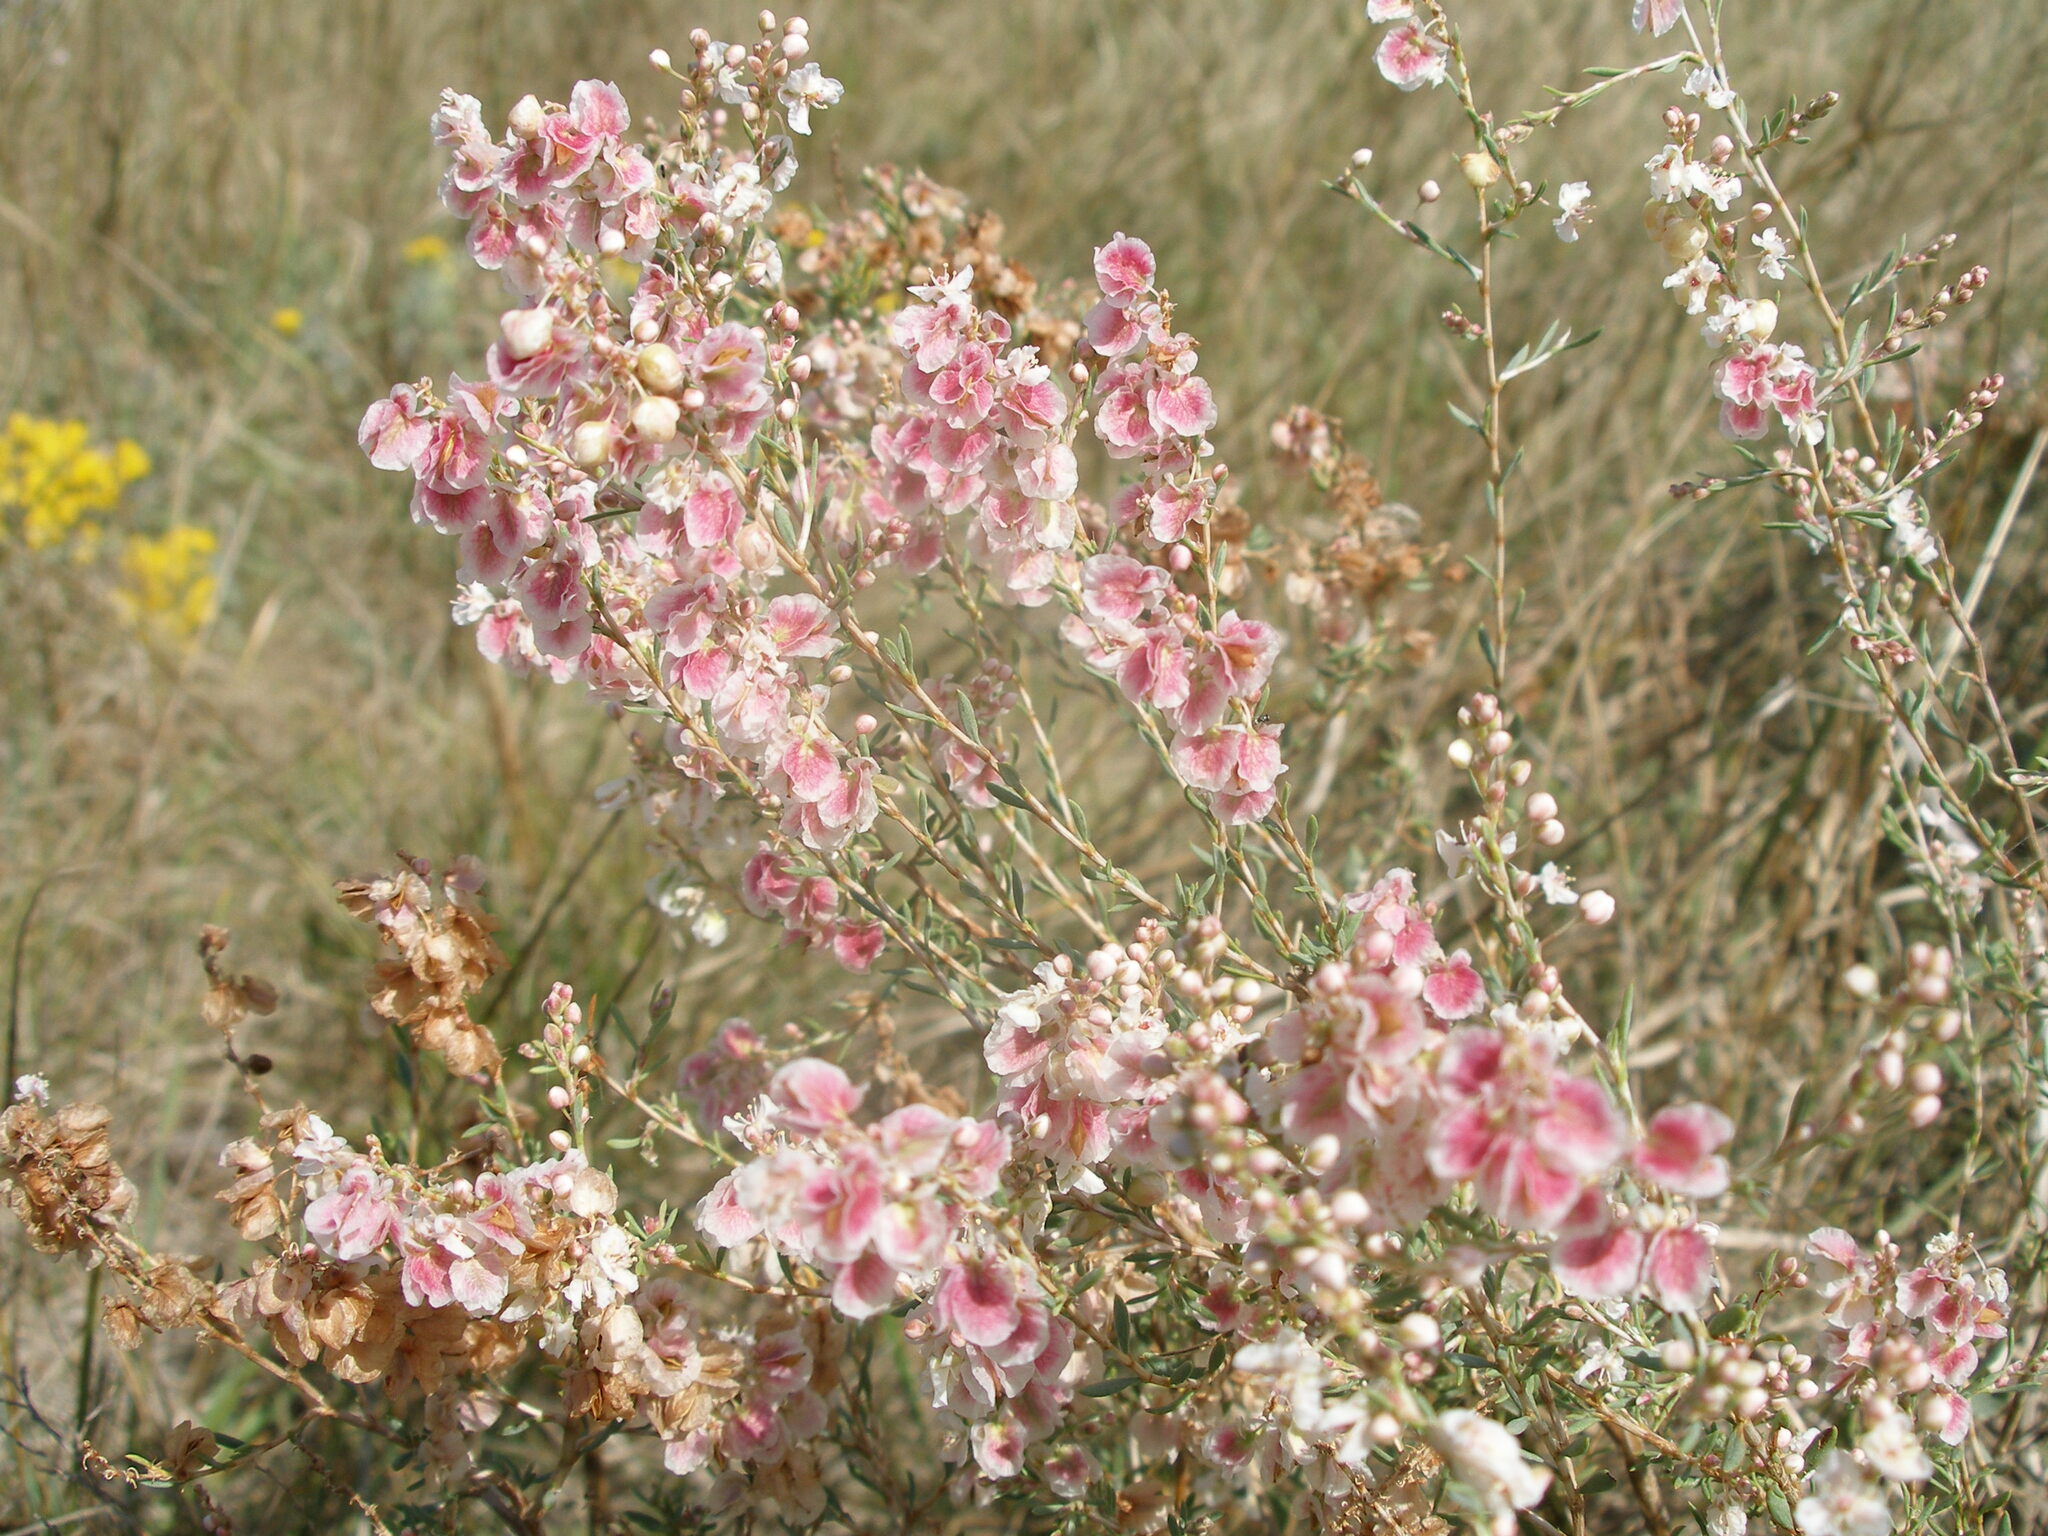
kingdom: Plantae
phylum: Tracheophyta
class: Magnoliopsida
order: Caryophyllales
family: Polygonaceae
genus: Atraphaxis
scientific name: Atraphaxis frutescens
